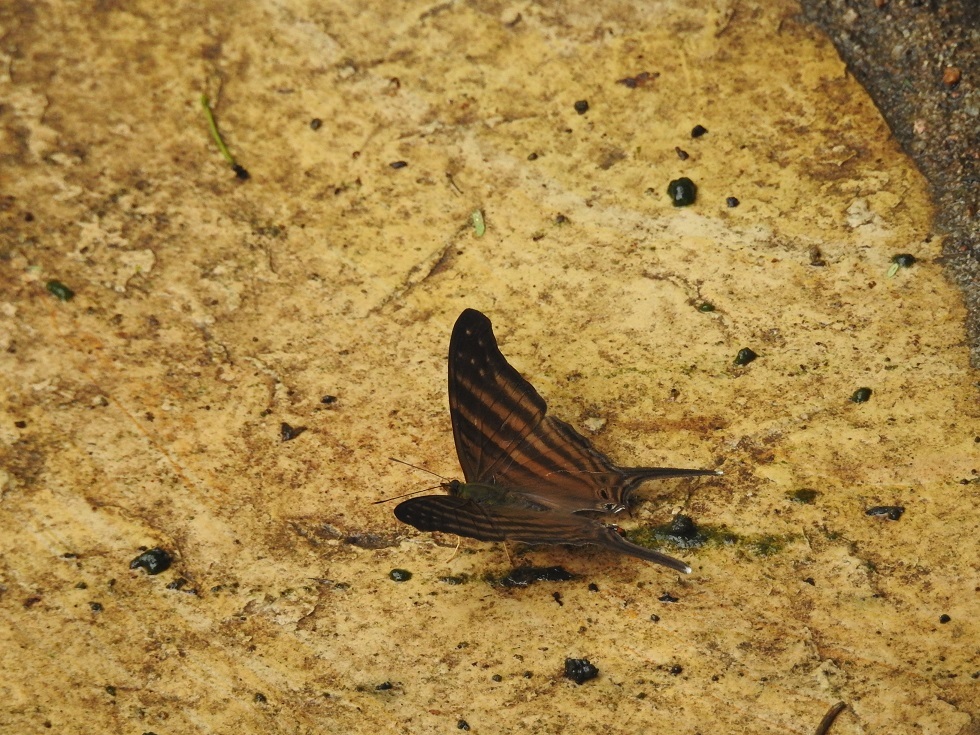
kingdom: Animalia
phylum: Arthropoda
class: Insecta
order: Lepidoptera
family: Nymphalidae
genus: Marpesia
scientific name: Marpesia chiron
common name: Many-banded daggerwing
